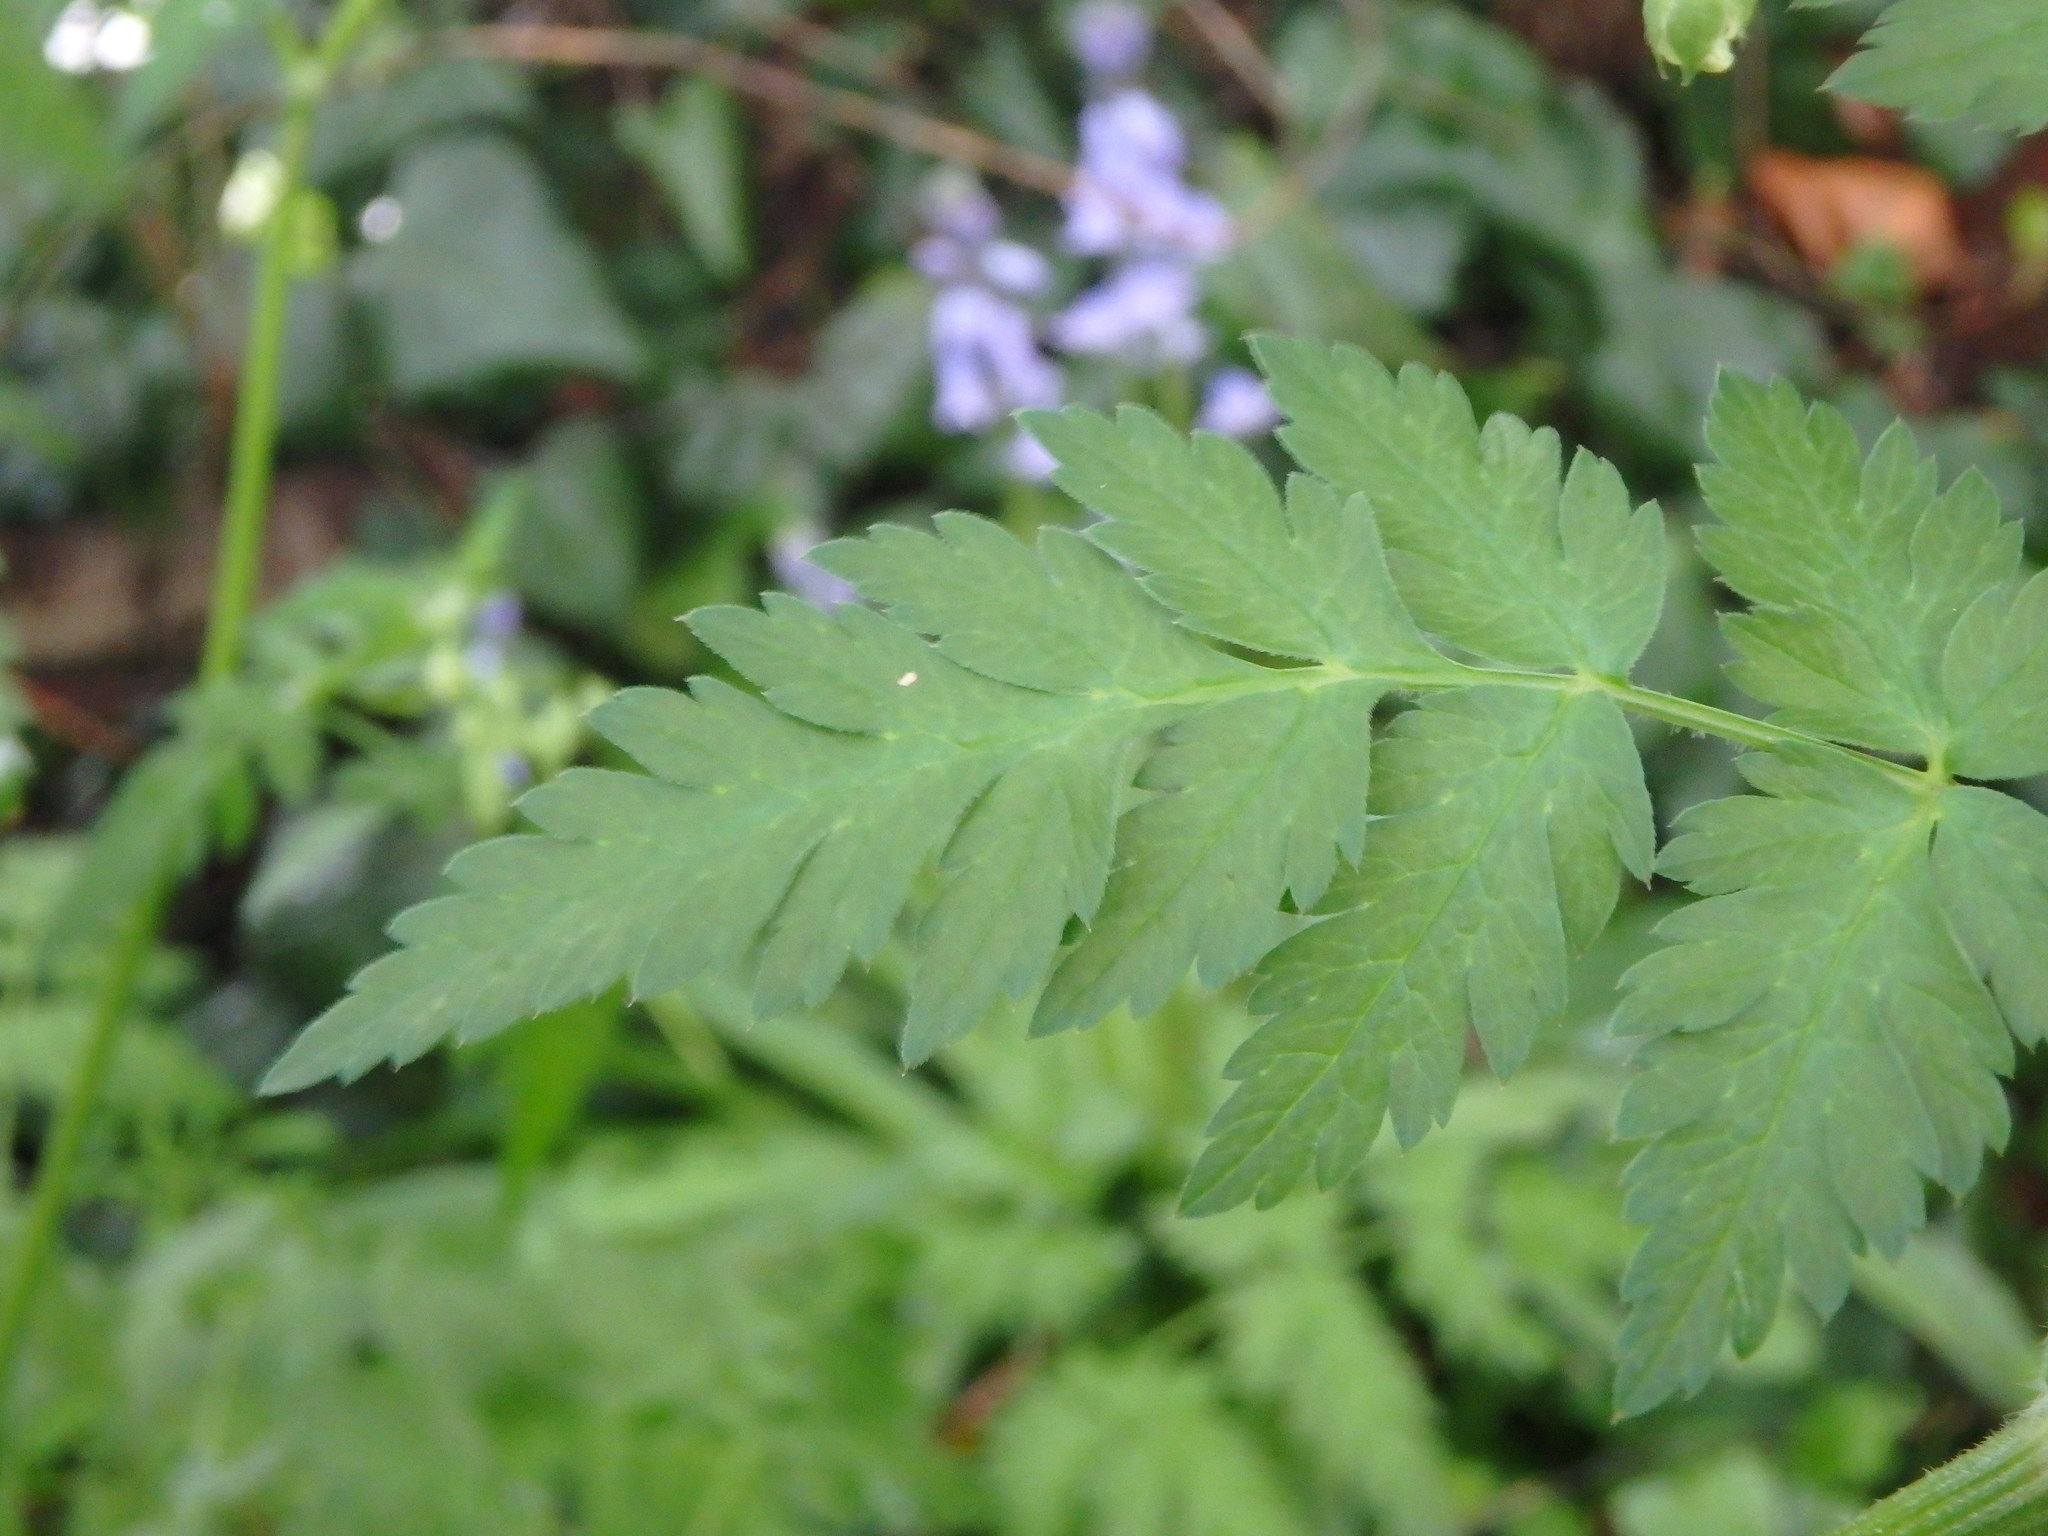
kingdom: Plantae
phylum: Tracheophyta
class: Magnoliopsida
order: Apiales
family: Apiaceae
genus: Anthriscus
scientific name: Anthriscus sylvestris
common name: Cow parsley
